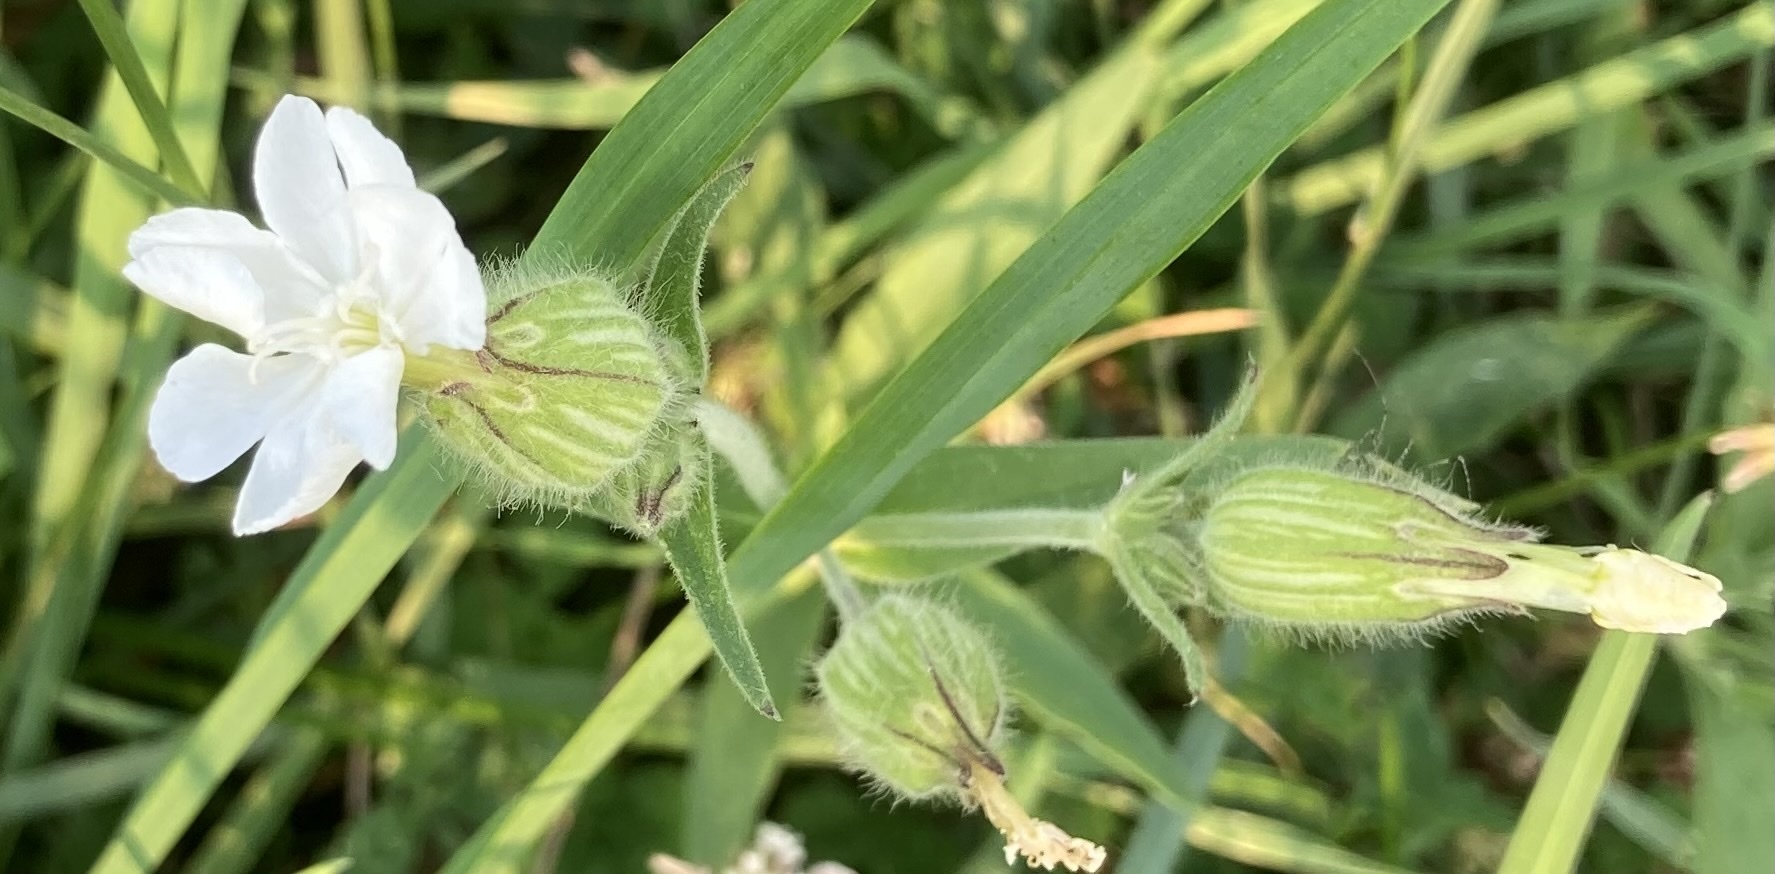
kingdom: Plantae
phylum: Tracheophyta
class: Magnoliopsida
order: Caryophyllales
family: Caryophyllaceae
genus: Silene
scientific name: Silene latifolia
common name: White campion
